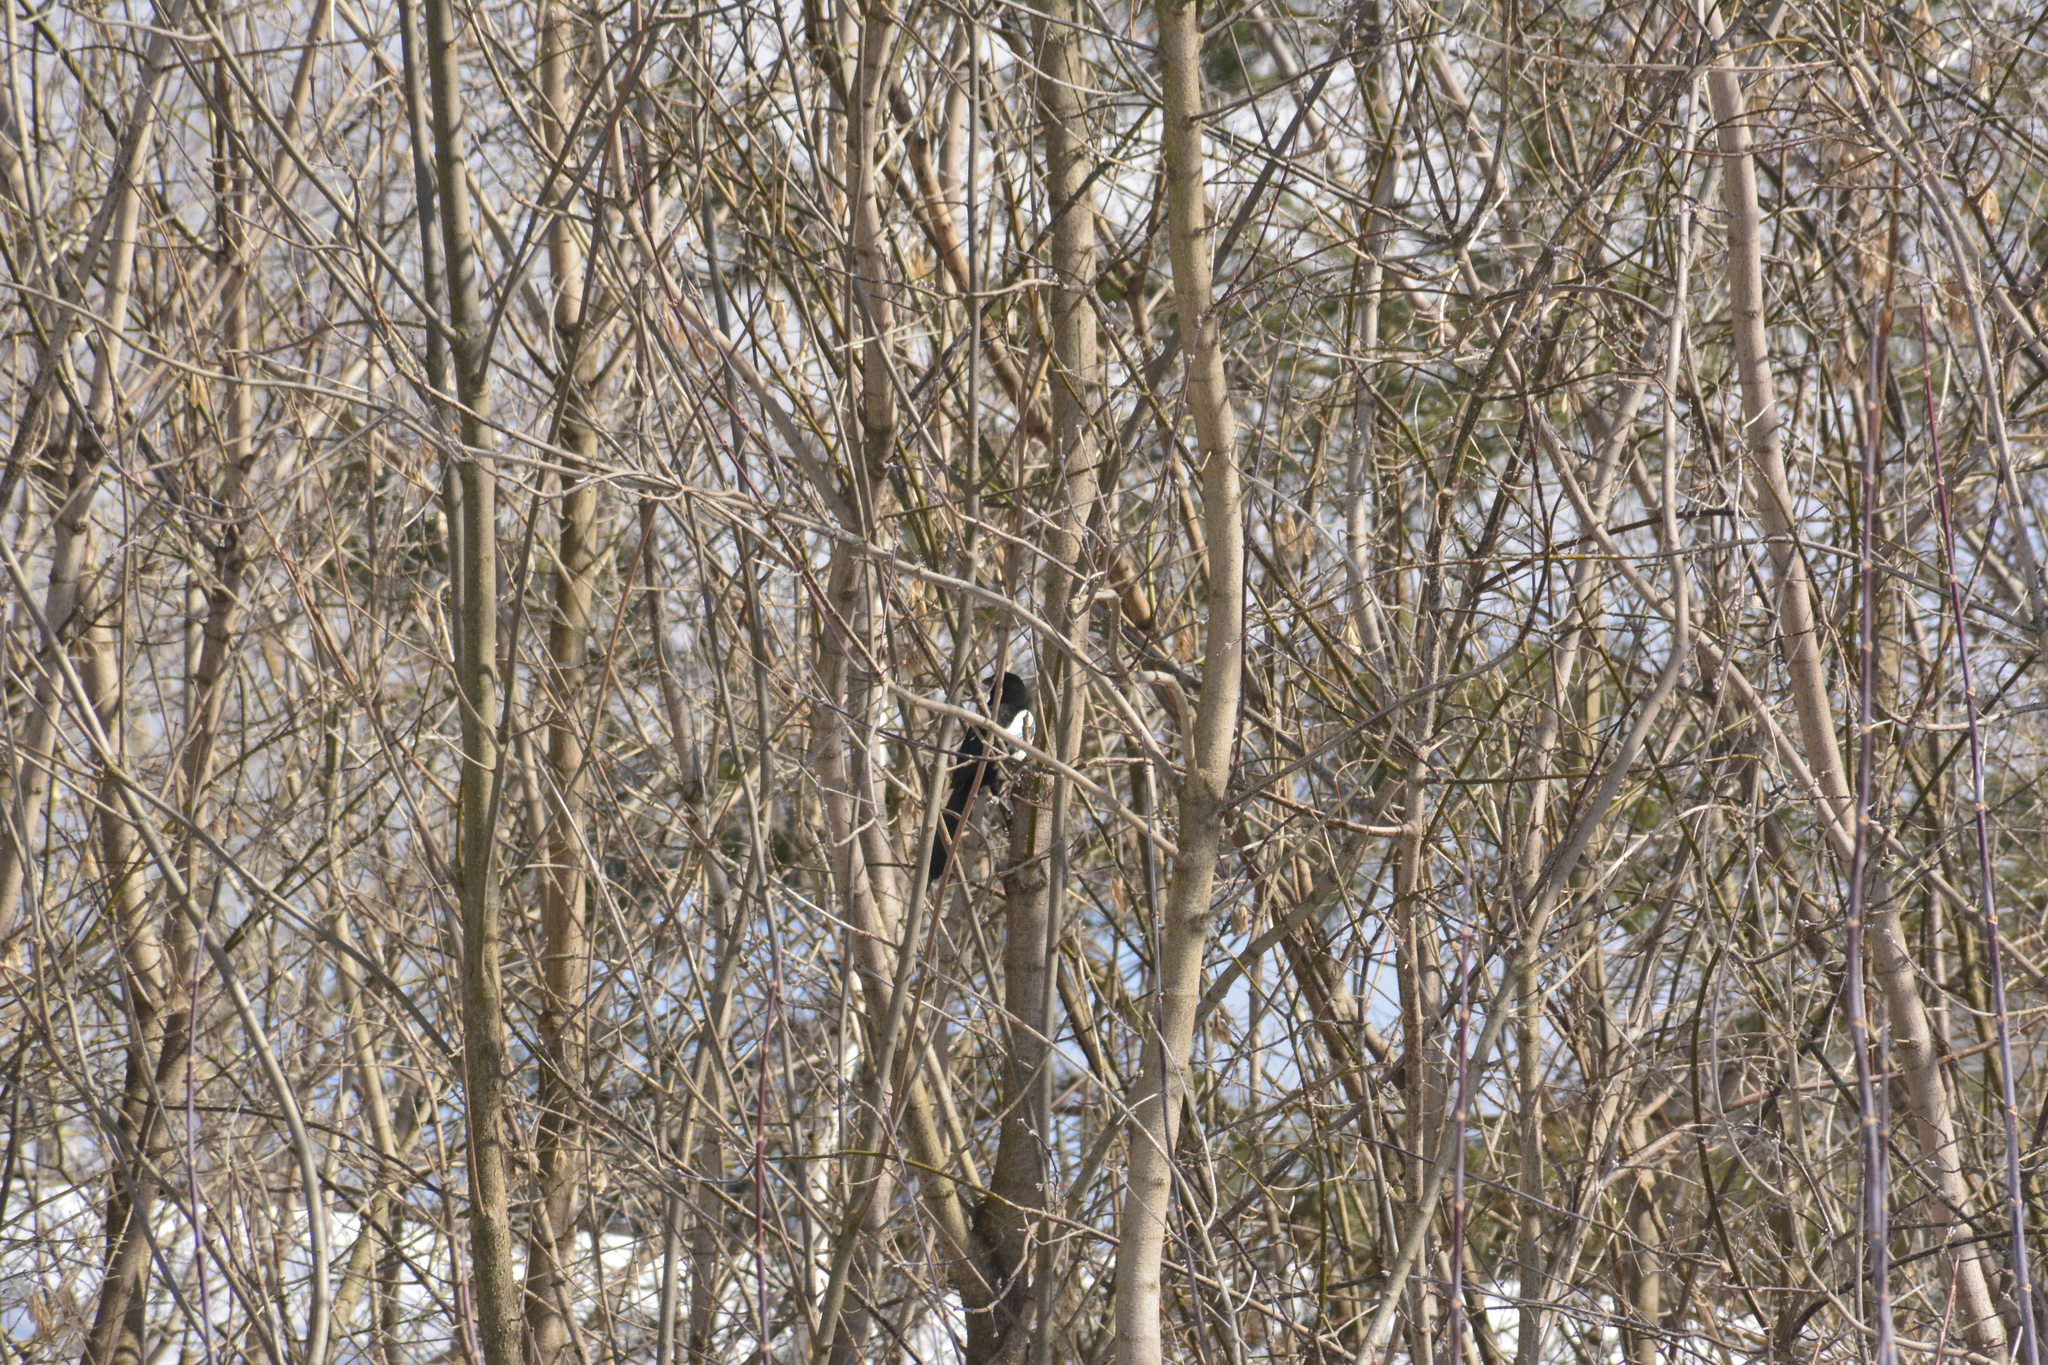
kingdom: Animalia
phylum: Chordata
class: Aves
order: Passeriformes
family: Corvidae
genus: Pica
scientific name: Pica pica
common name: Eurasian magpie
